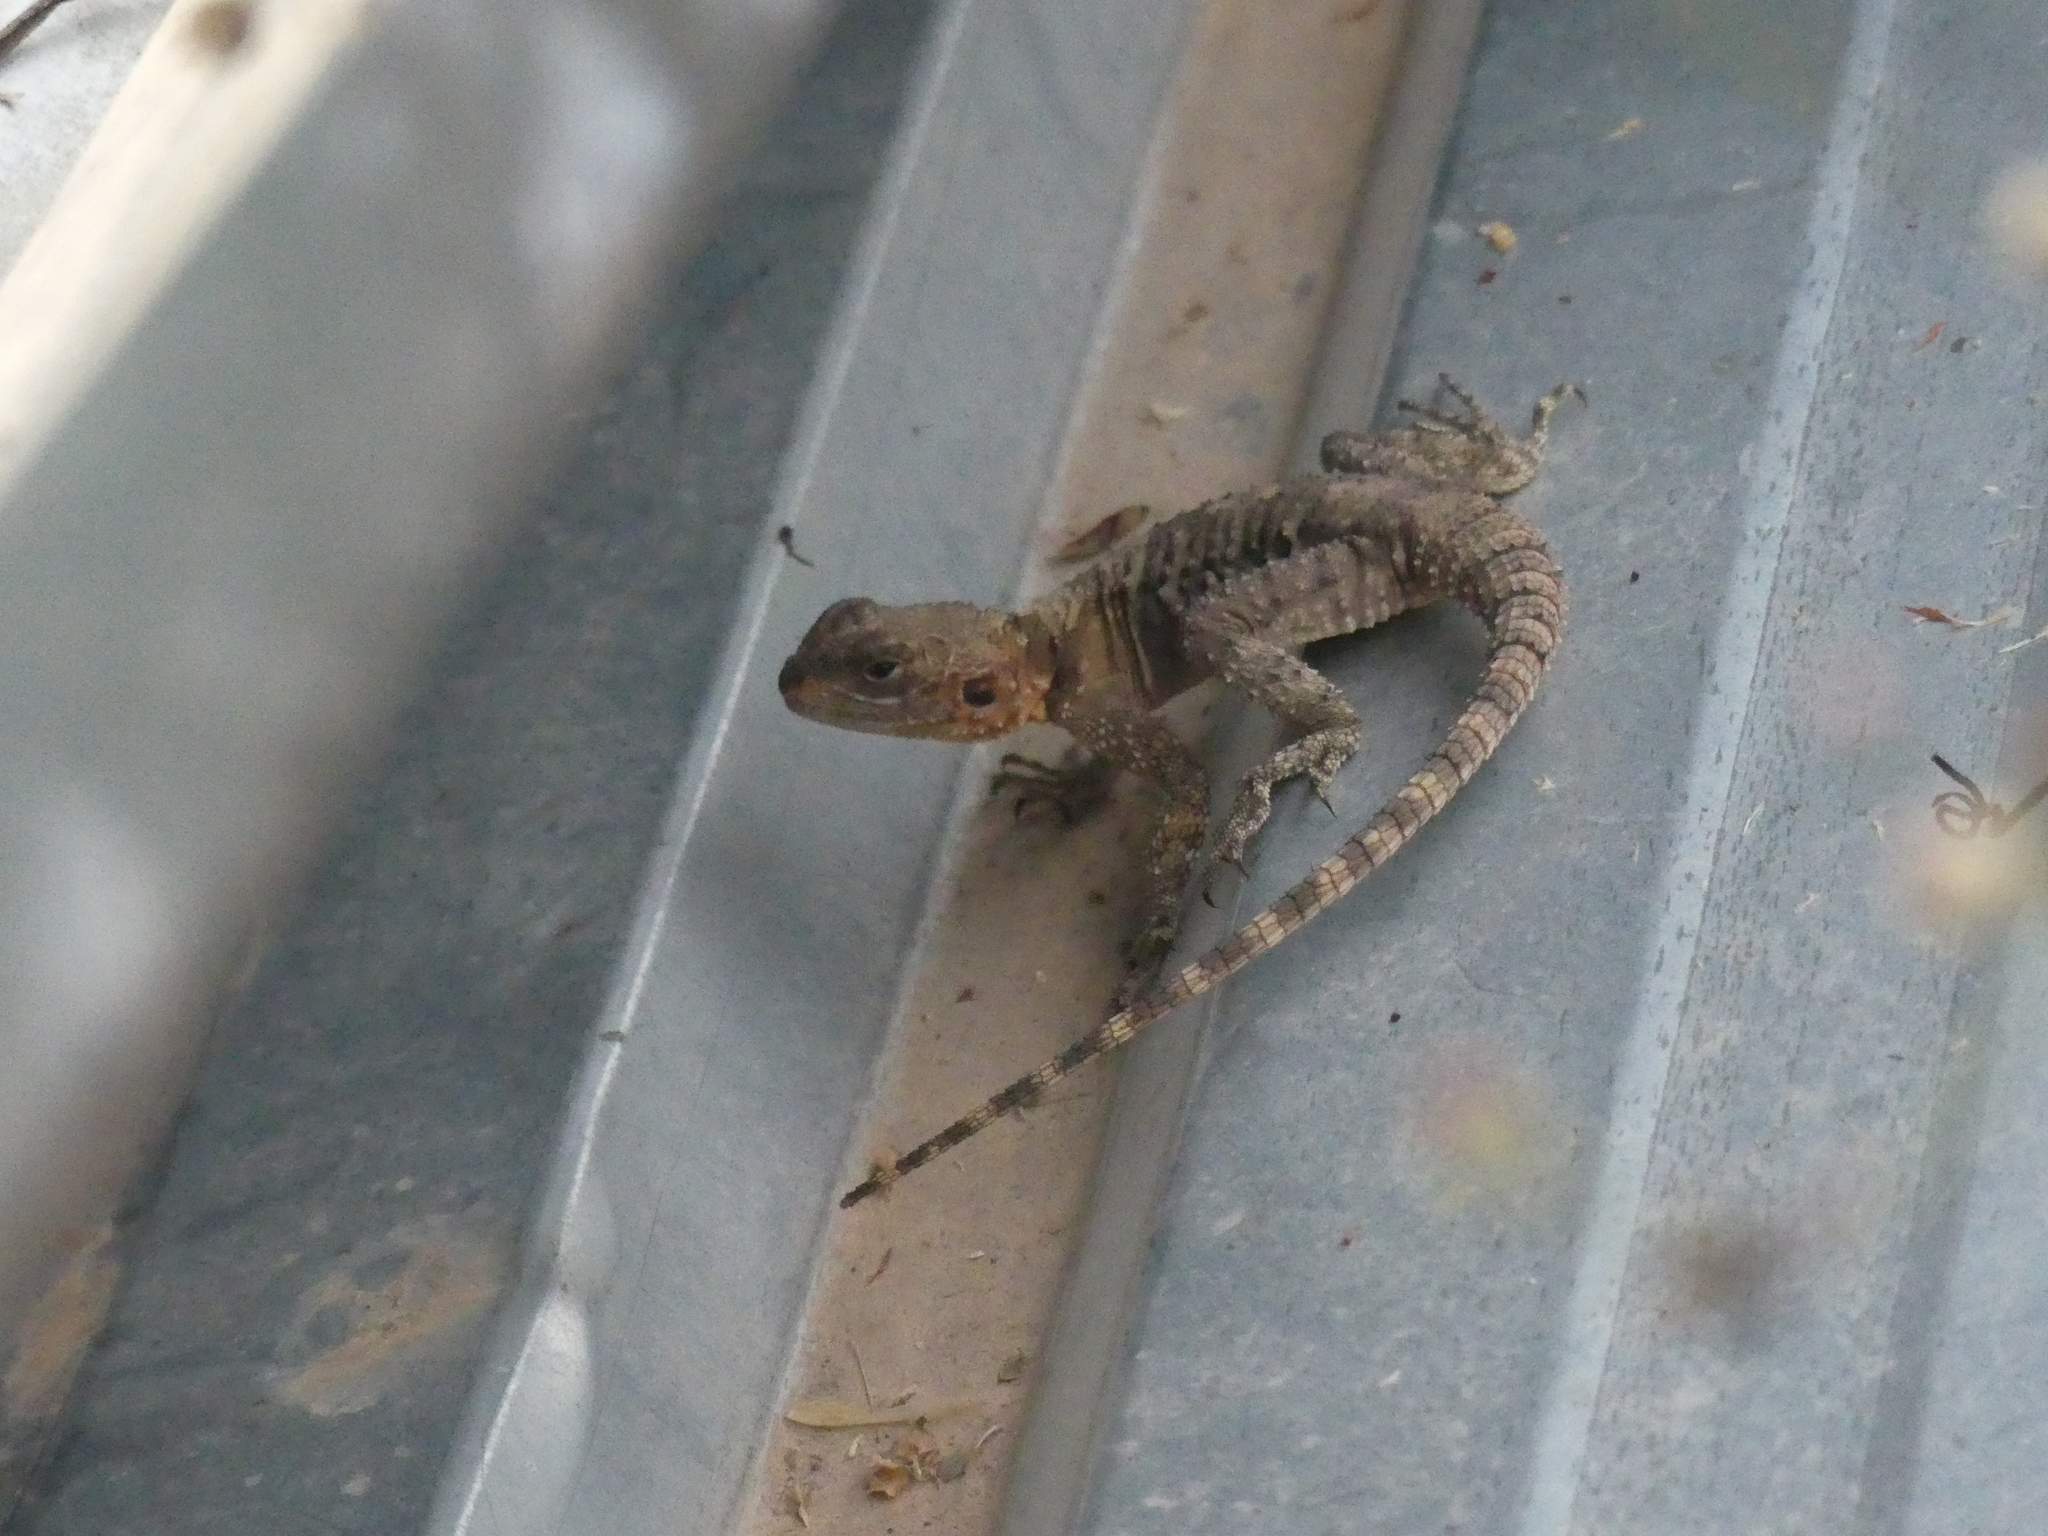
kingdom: Animalia
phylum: Chordata
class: Squamata
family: Agamidae
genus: Laudakia
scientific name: Laudakia vulgaris
